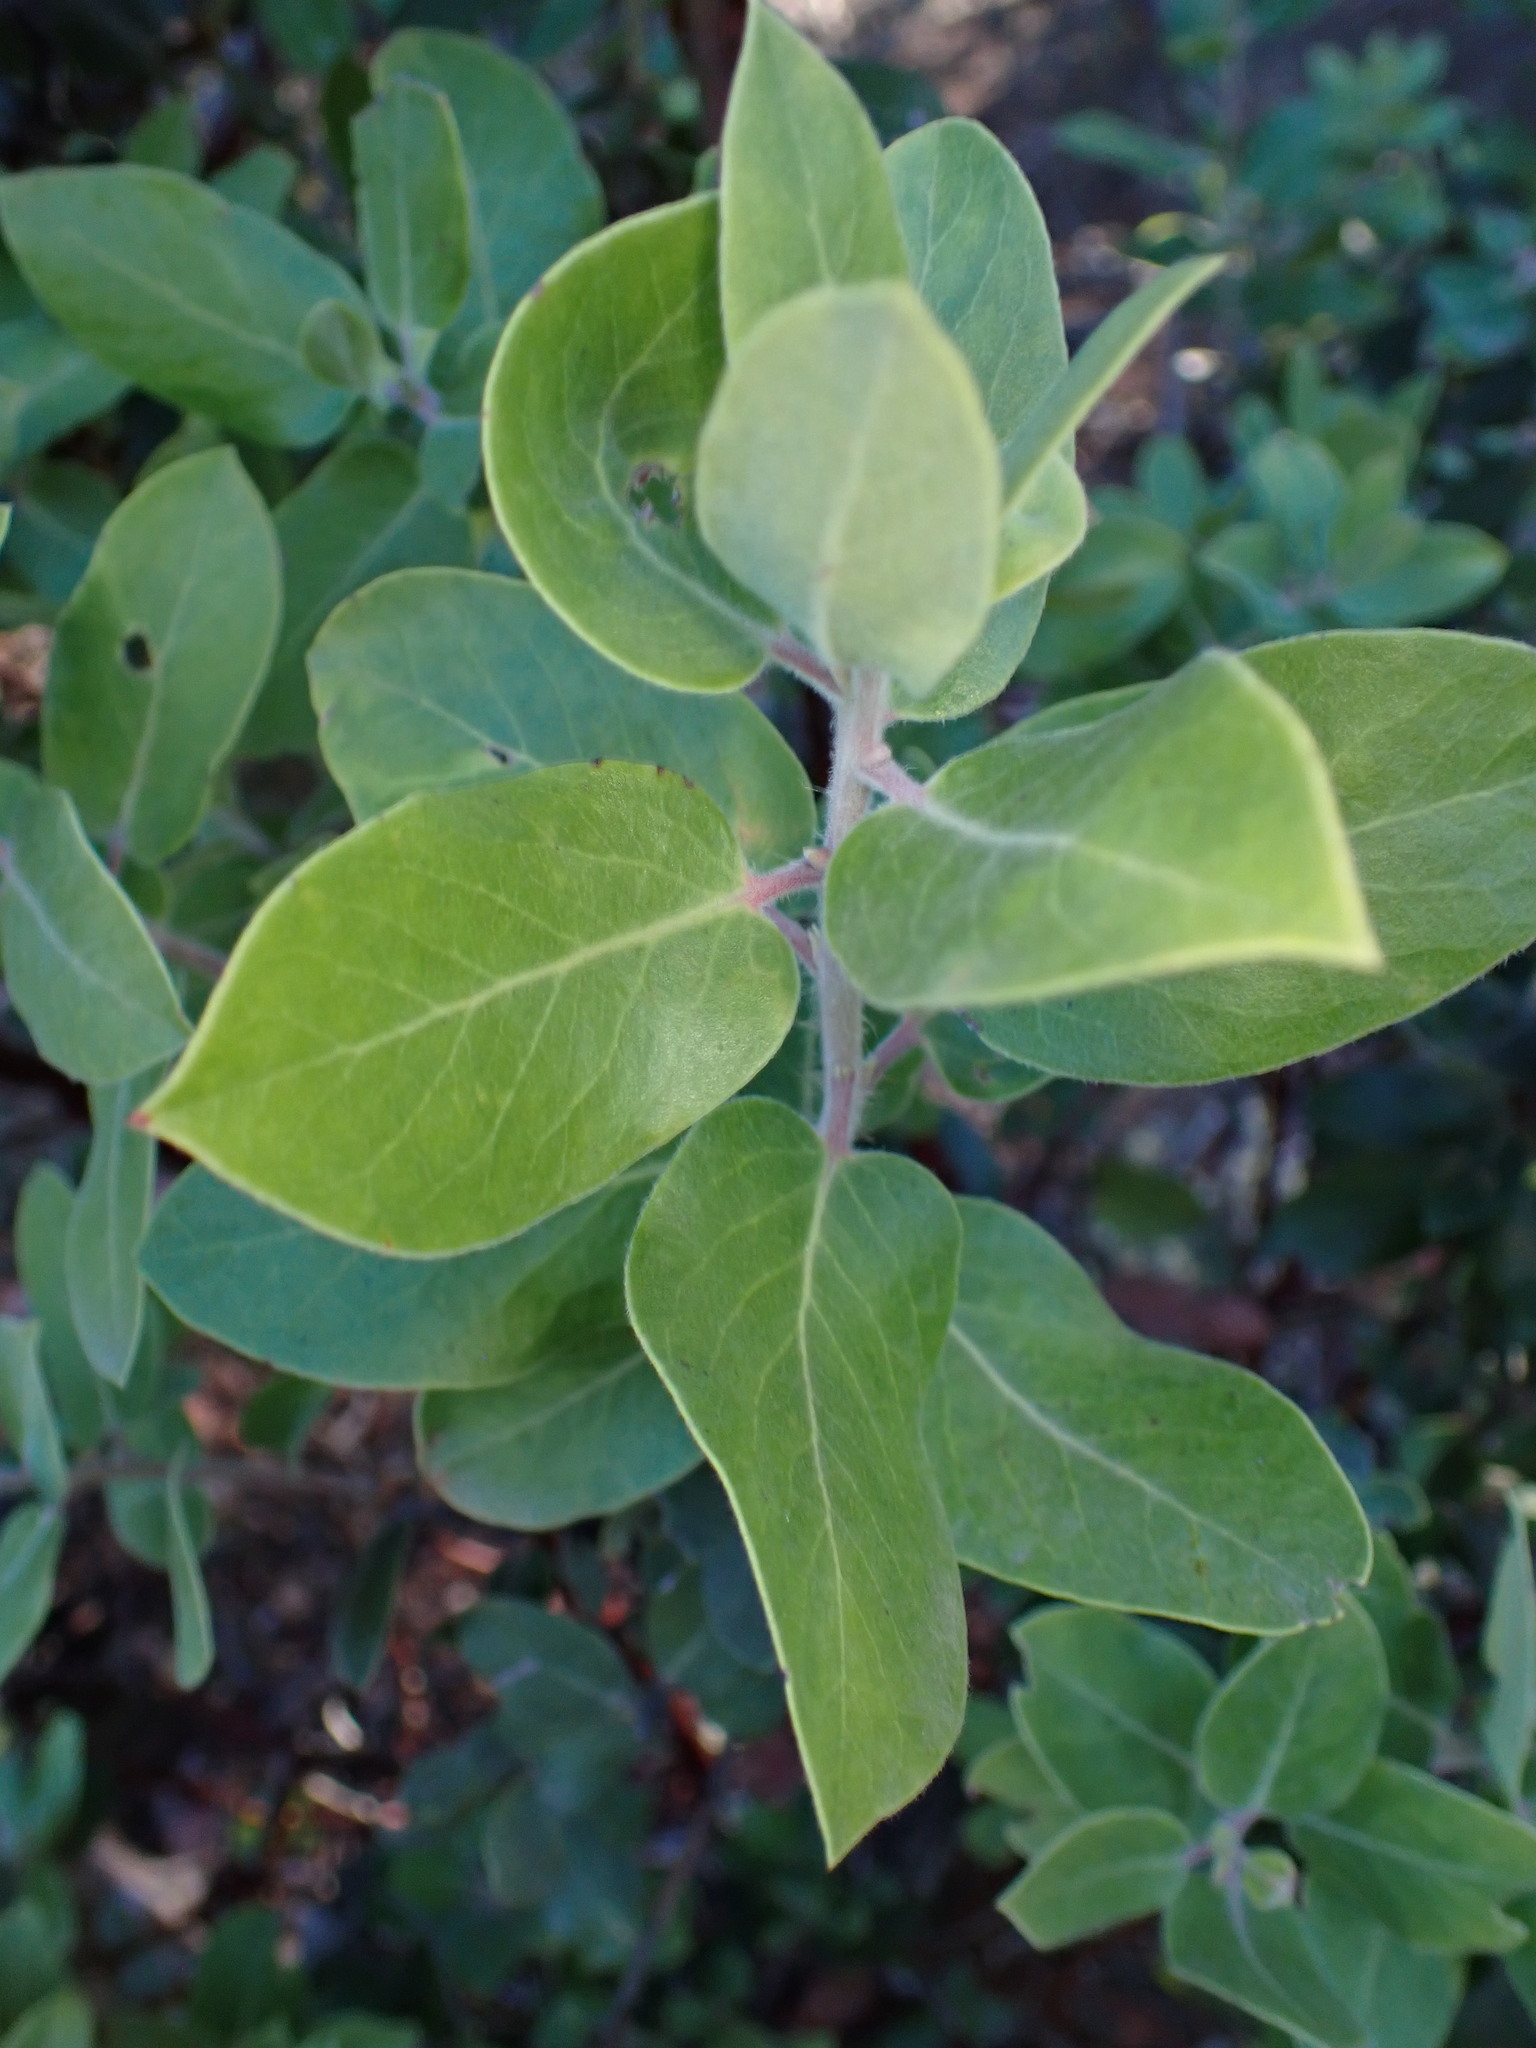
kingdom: Plantae
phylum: Tracheophyta
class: Magnoliopsida
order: Ericales
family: Ericaceae
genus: Arctostaphylos
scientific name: Arctostaphylos crustacea
